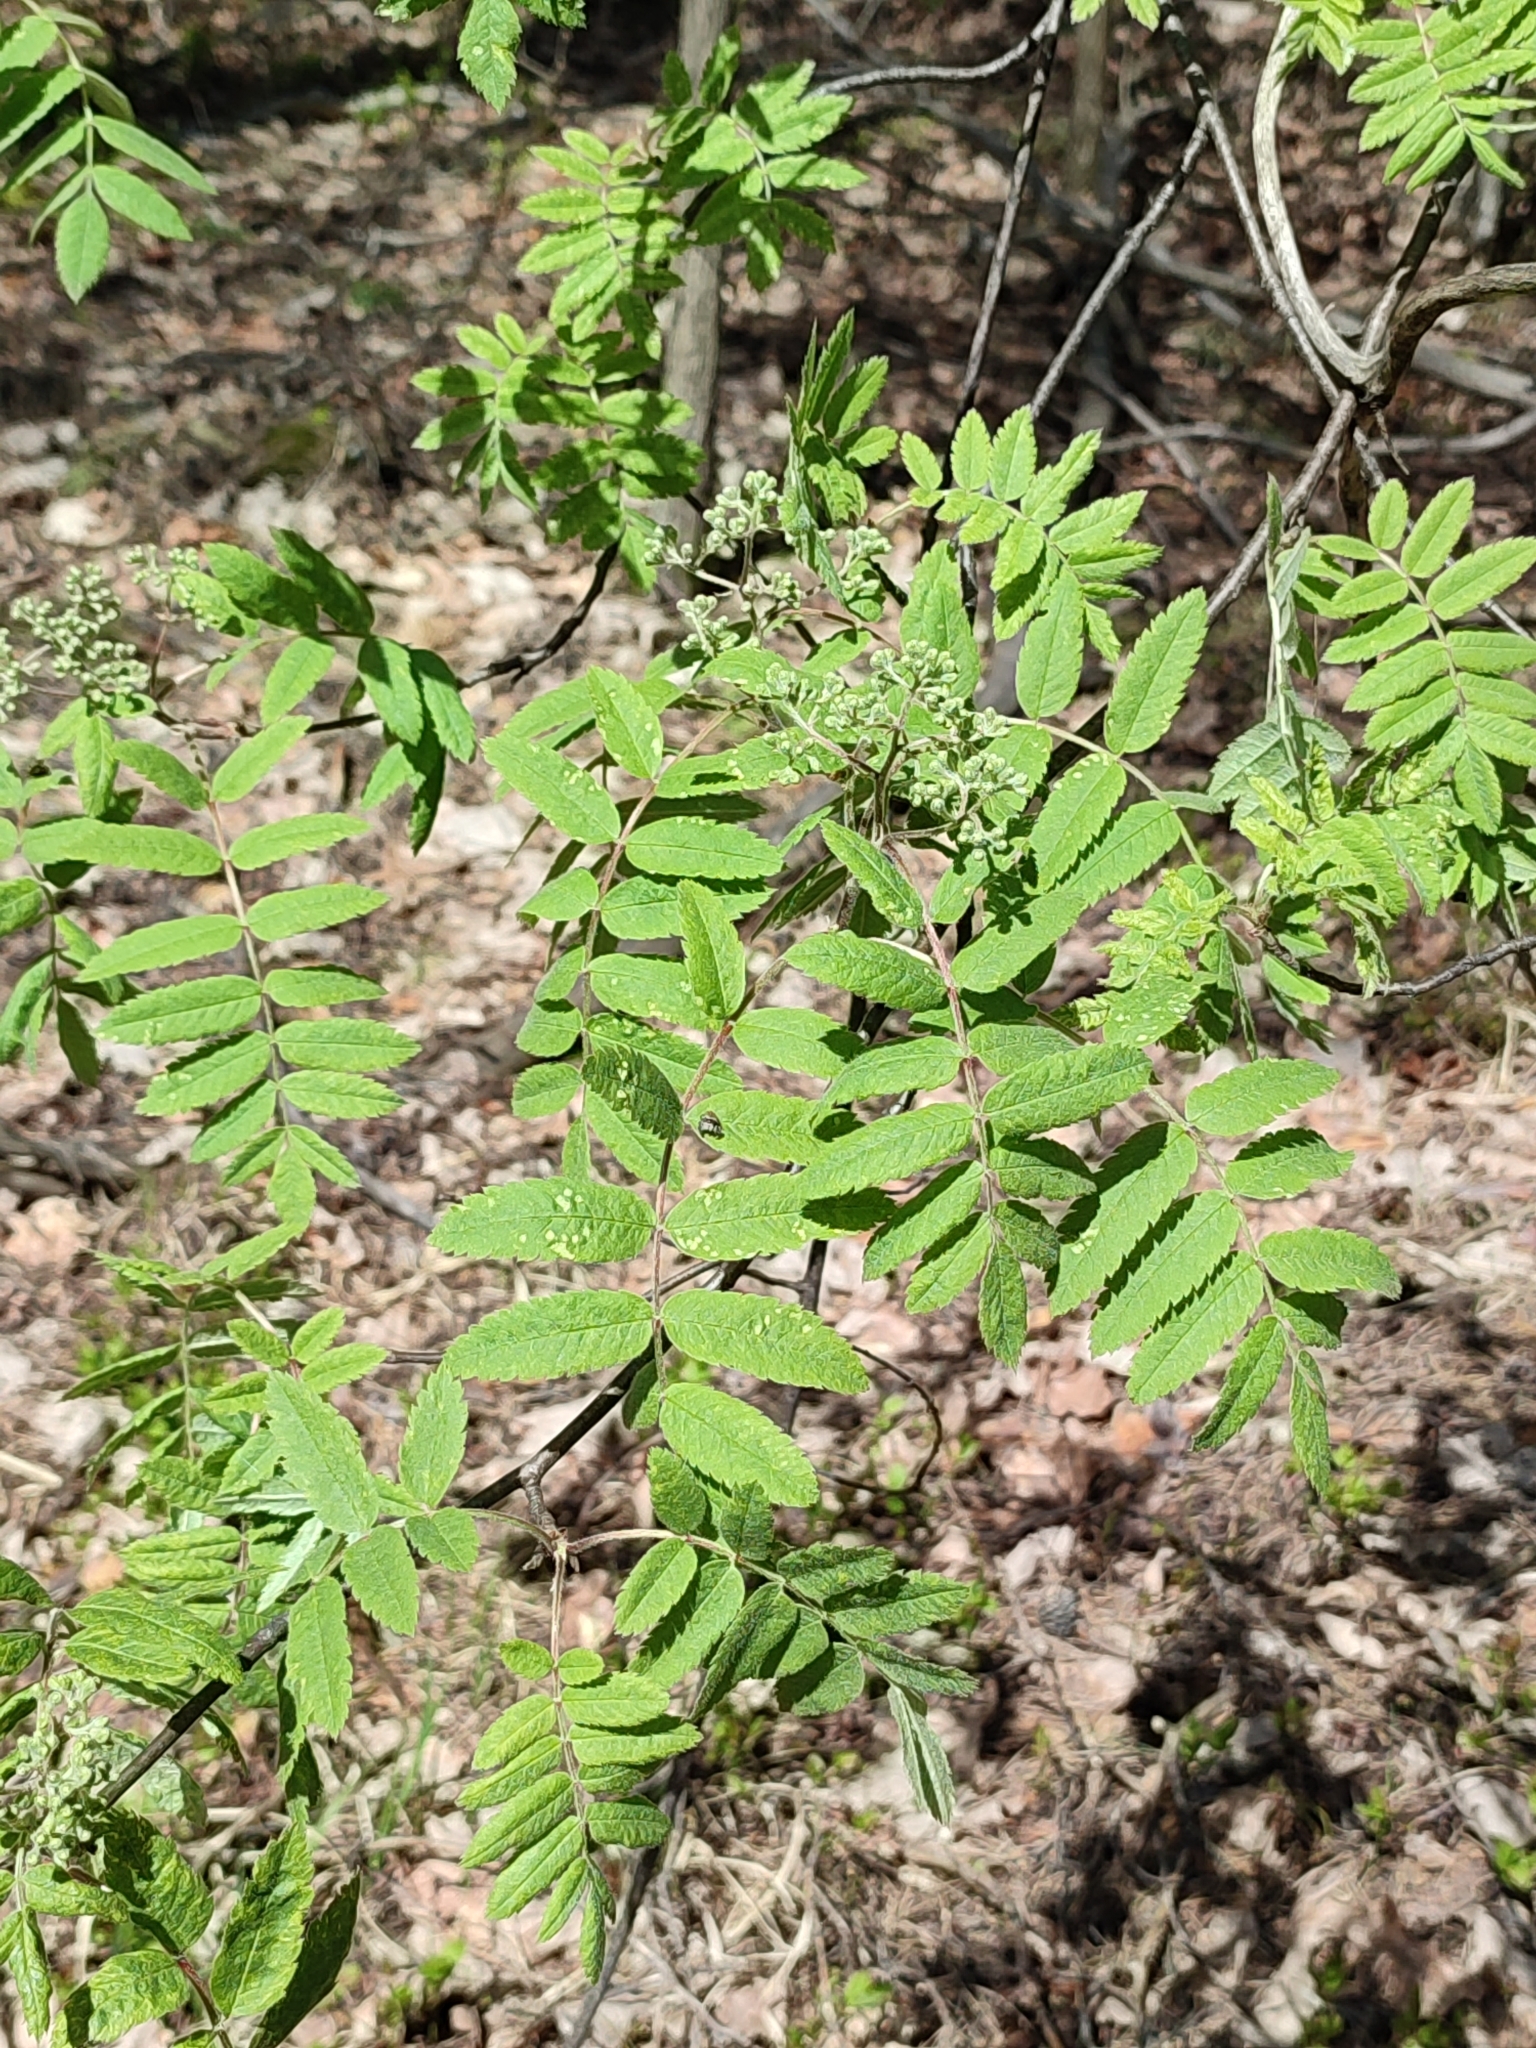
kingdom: Plantae
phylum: Tracheophyta
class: Magnoliopsida
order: Rosales
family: Rosaceae
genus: Sorbus
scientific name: Sorbus aucuparia
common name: Rowan
